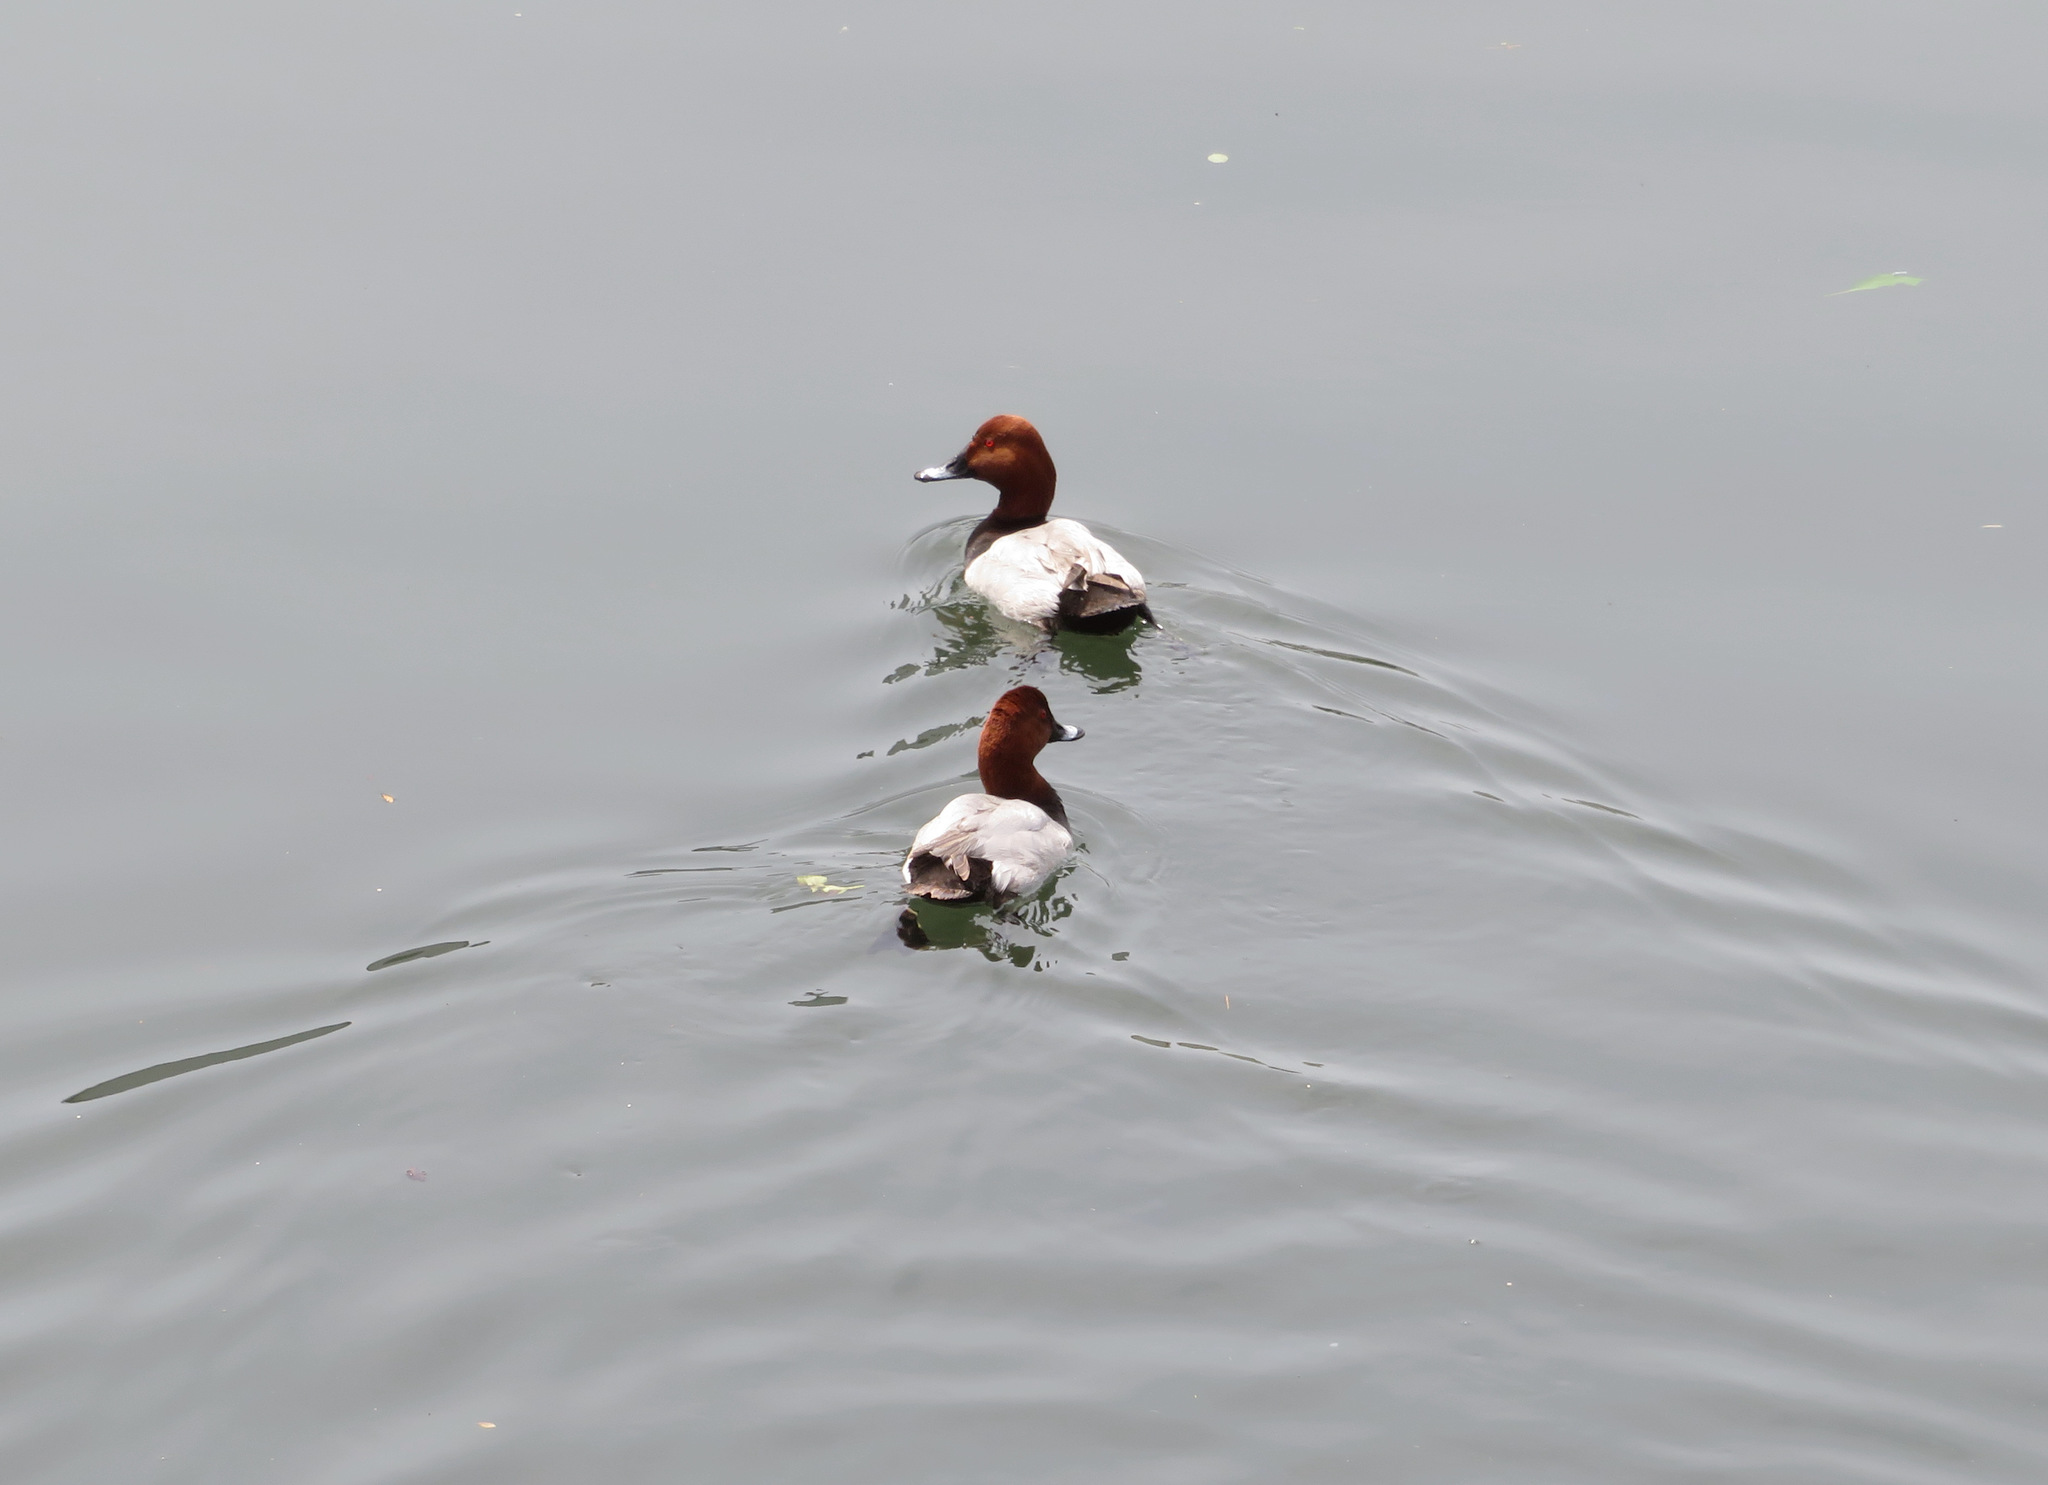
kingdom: Animalia
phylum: Chordata
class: Aves
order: Anseriformes
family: Anatidae
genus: Aythya
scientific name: Aythya ferina
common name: Common pochard
